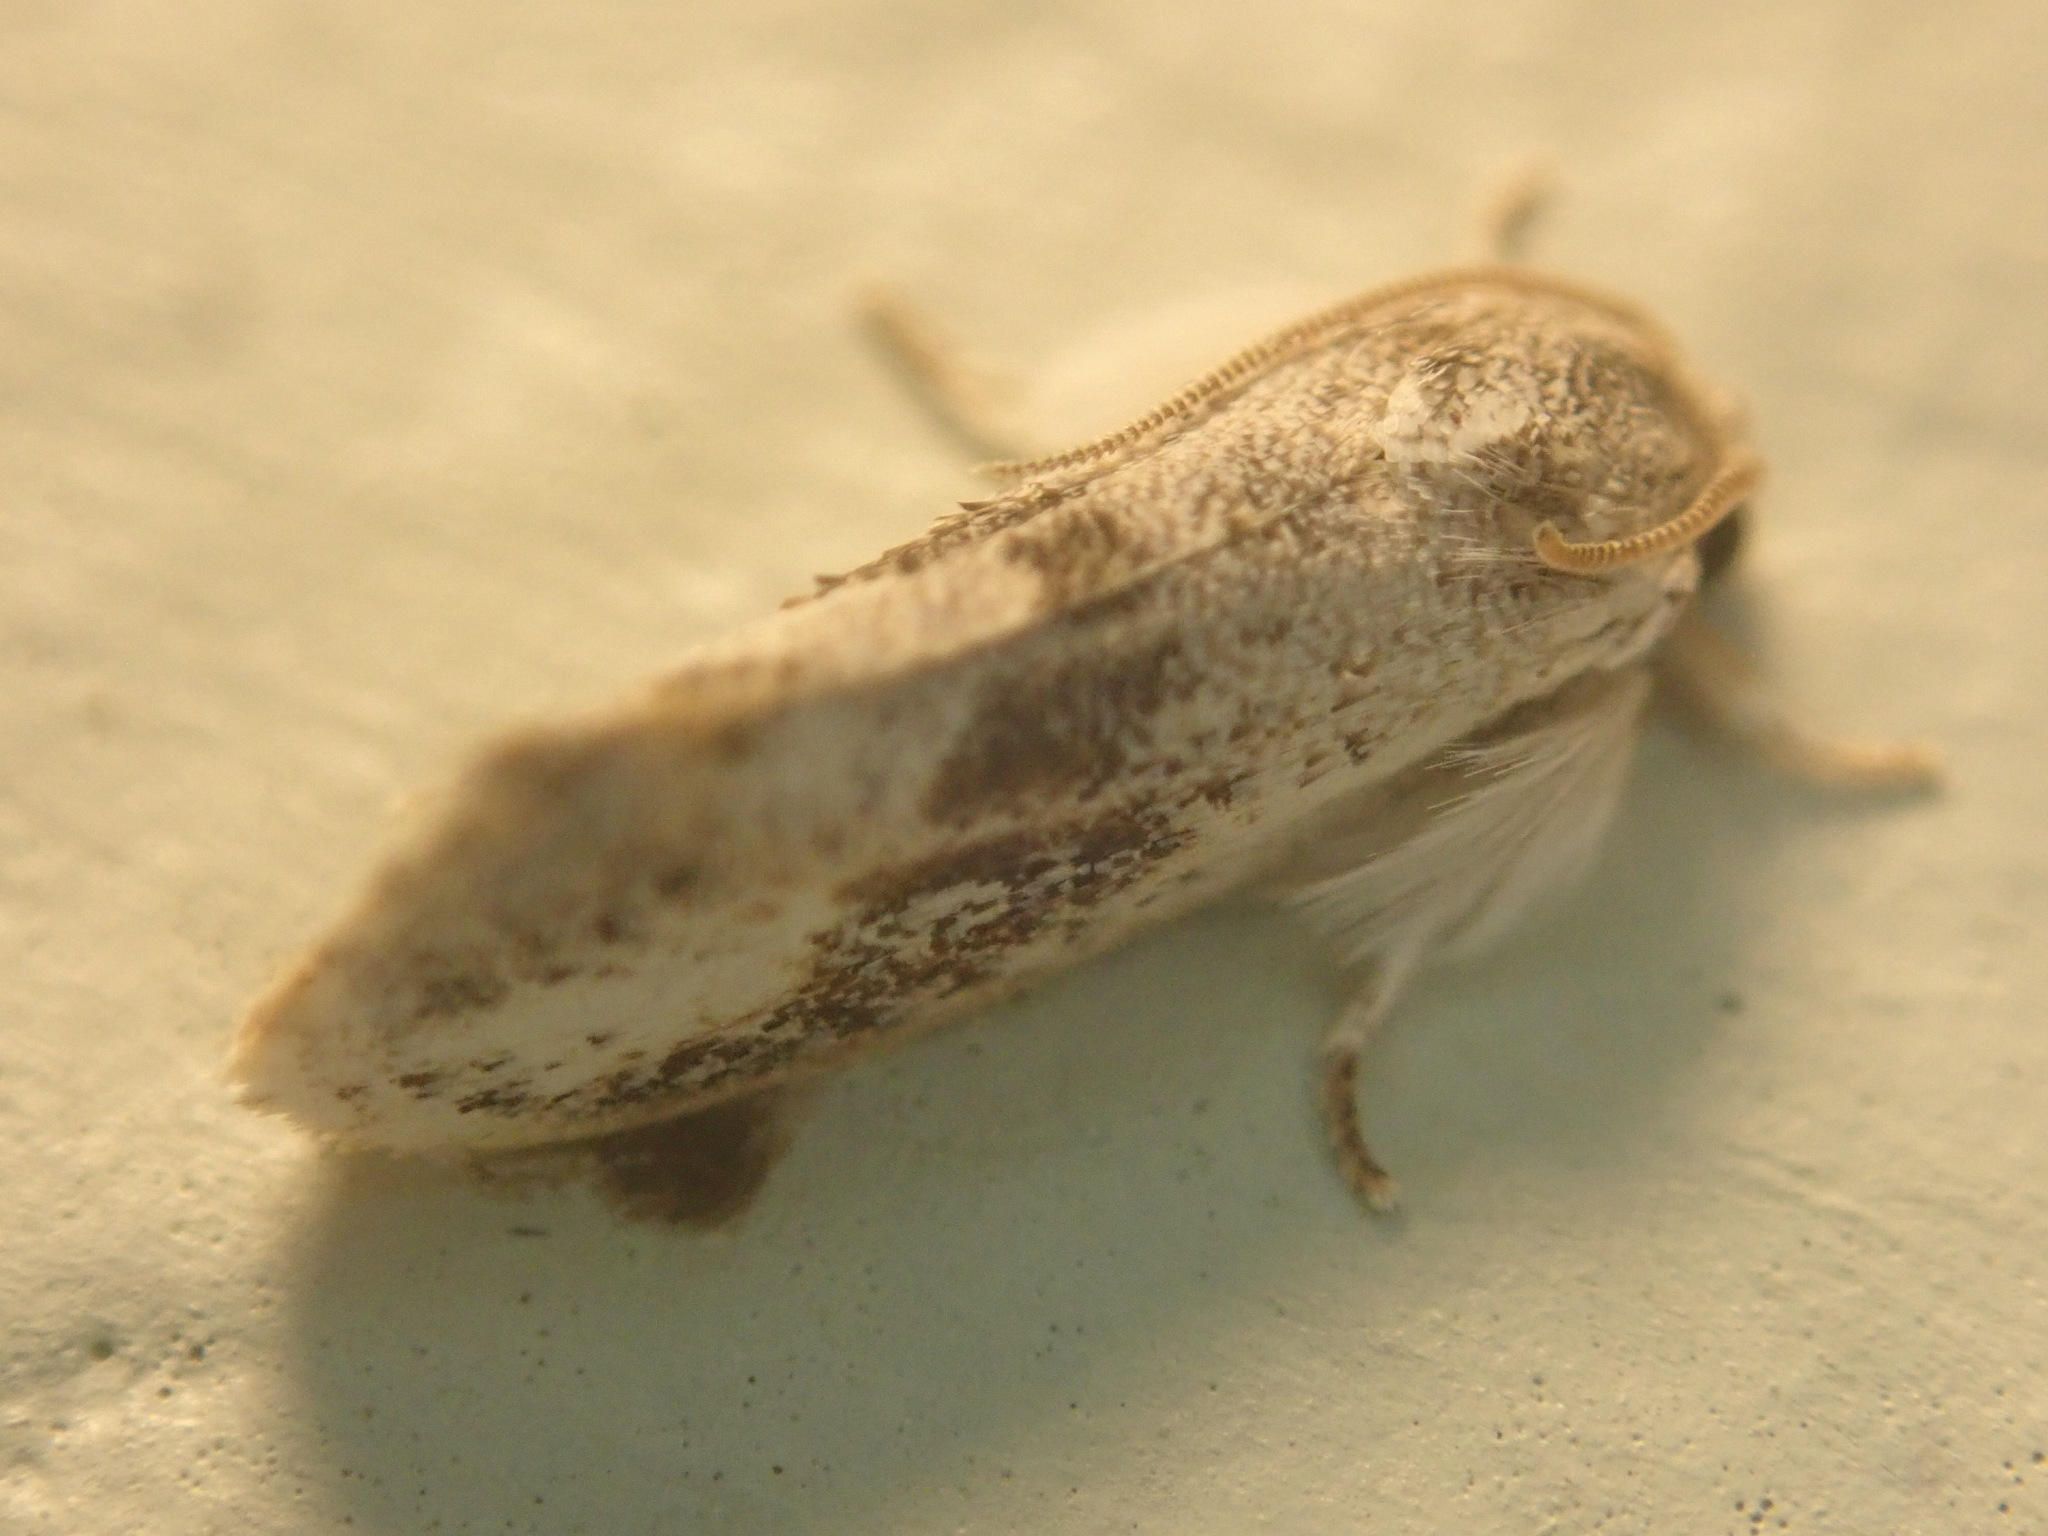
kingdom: Animalia
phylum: Arthropoda
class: Insecta
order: Lepidoptera
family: Tineidae
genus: Acrolophus
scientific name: Acrolophus mycetophagus
